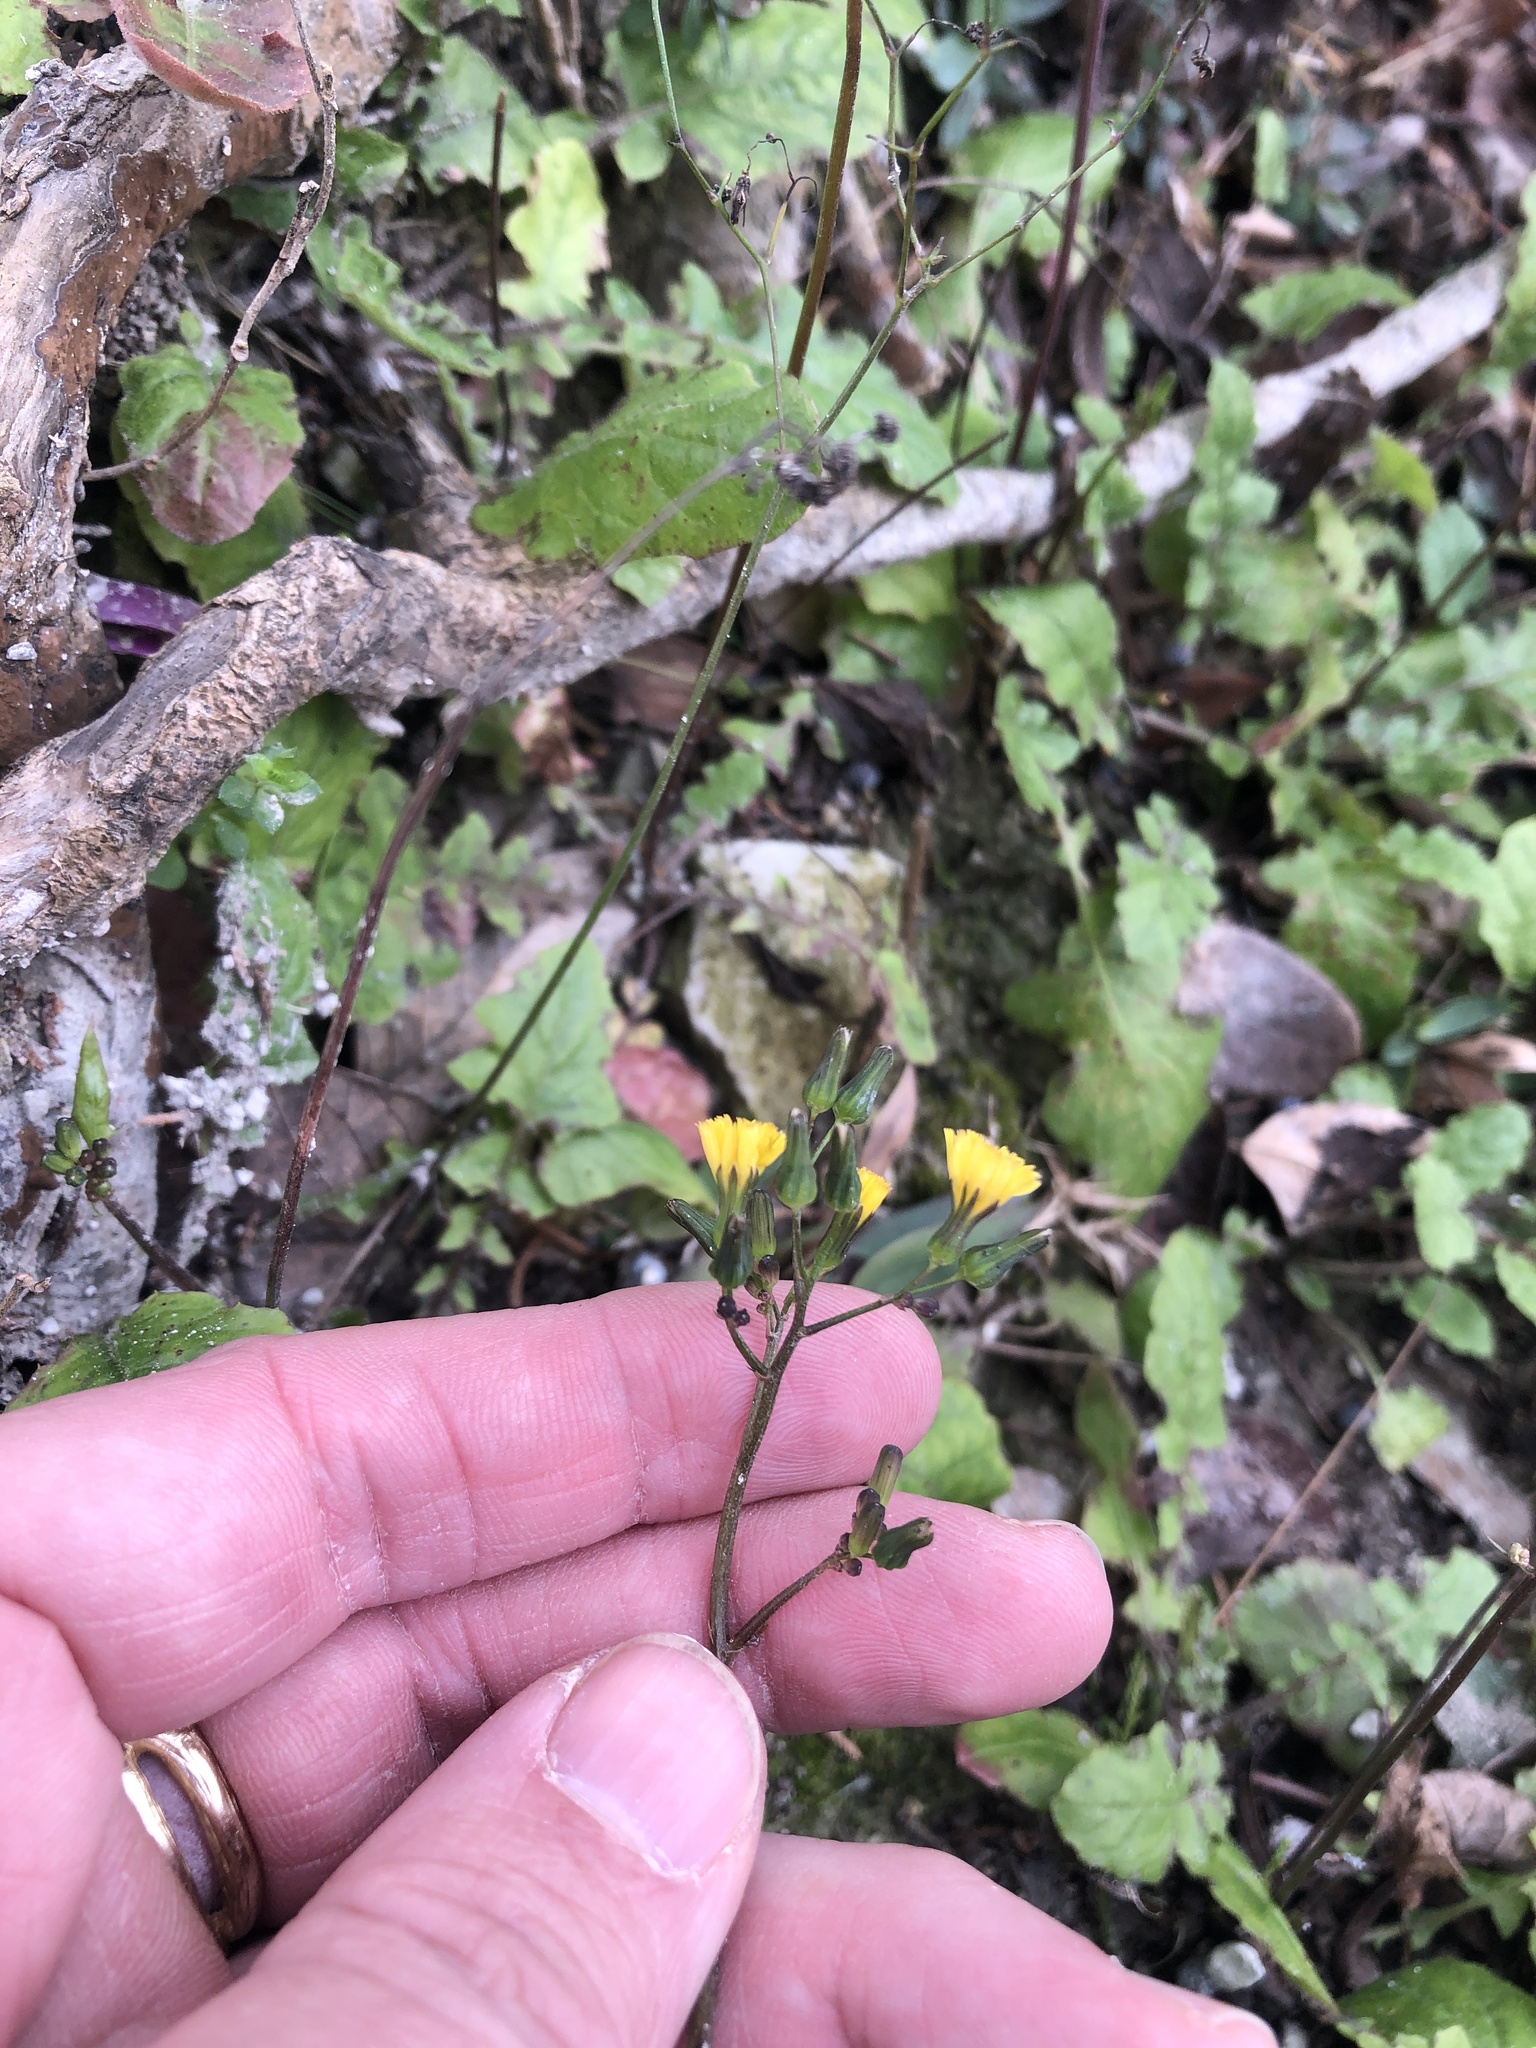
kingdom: Plantae
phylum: Tracheophyta
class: Magnoliopsida
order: Asterales
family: Asteraceae
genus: Youngia
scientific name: Youngia japonica
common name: Oriental false hawksbeard
